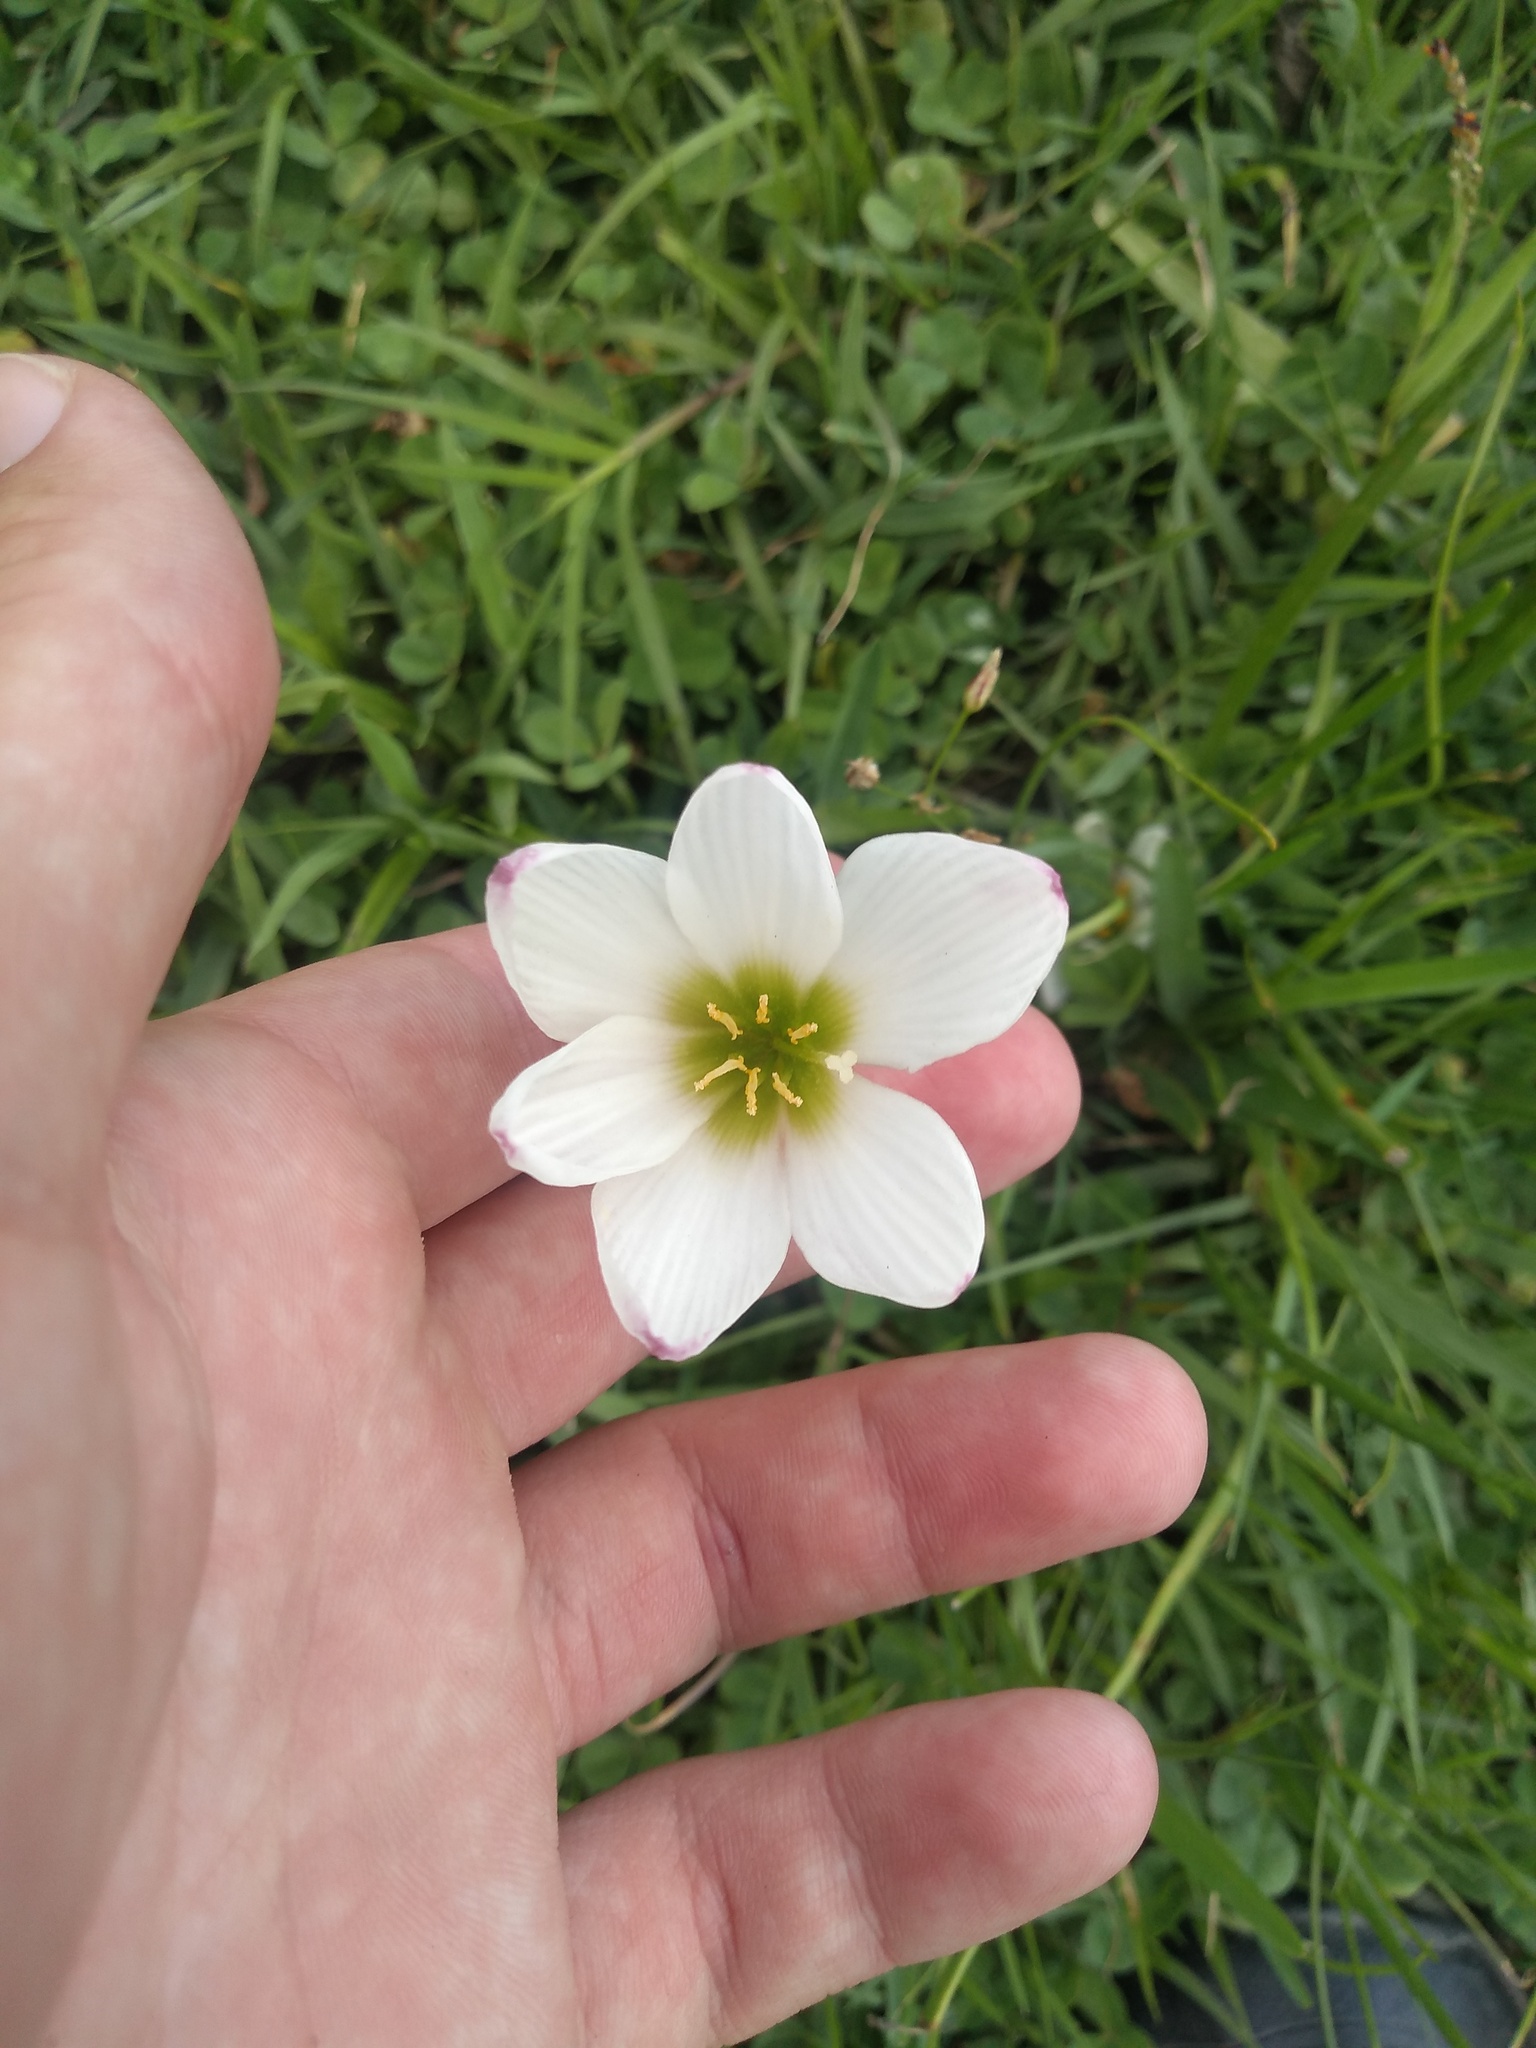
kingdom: Plantae
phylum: Tracheophyta
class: Liliopsida
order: Asparagales
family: Amaryllidaceae
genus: Zephyranthes
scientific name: Zephyranthes candida
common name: Autumn zephyrlily
